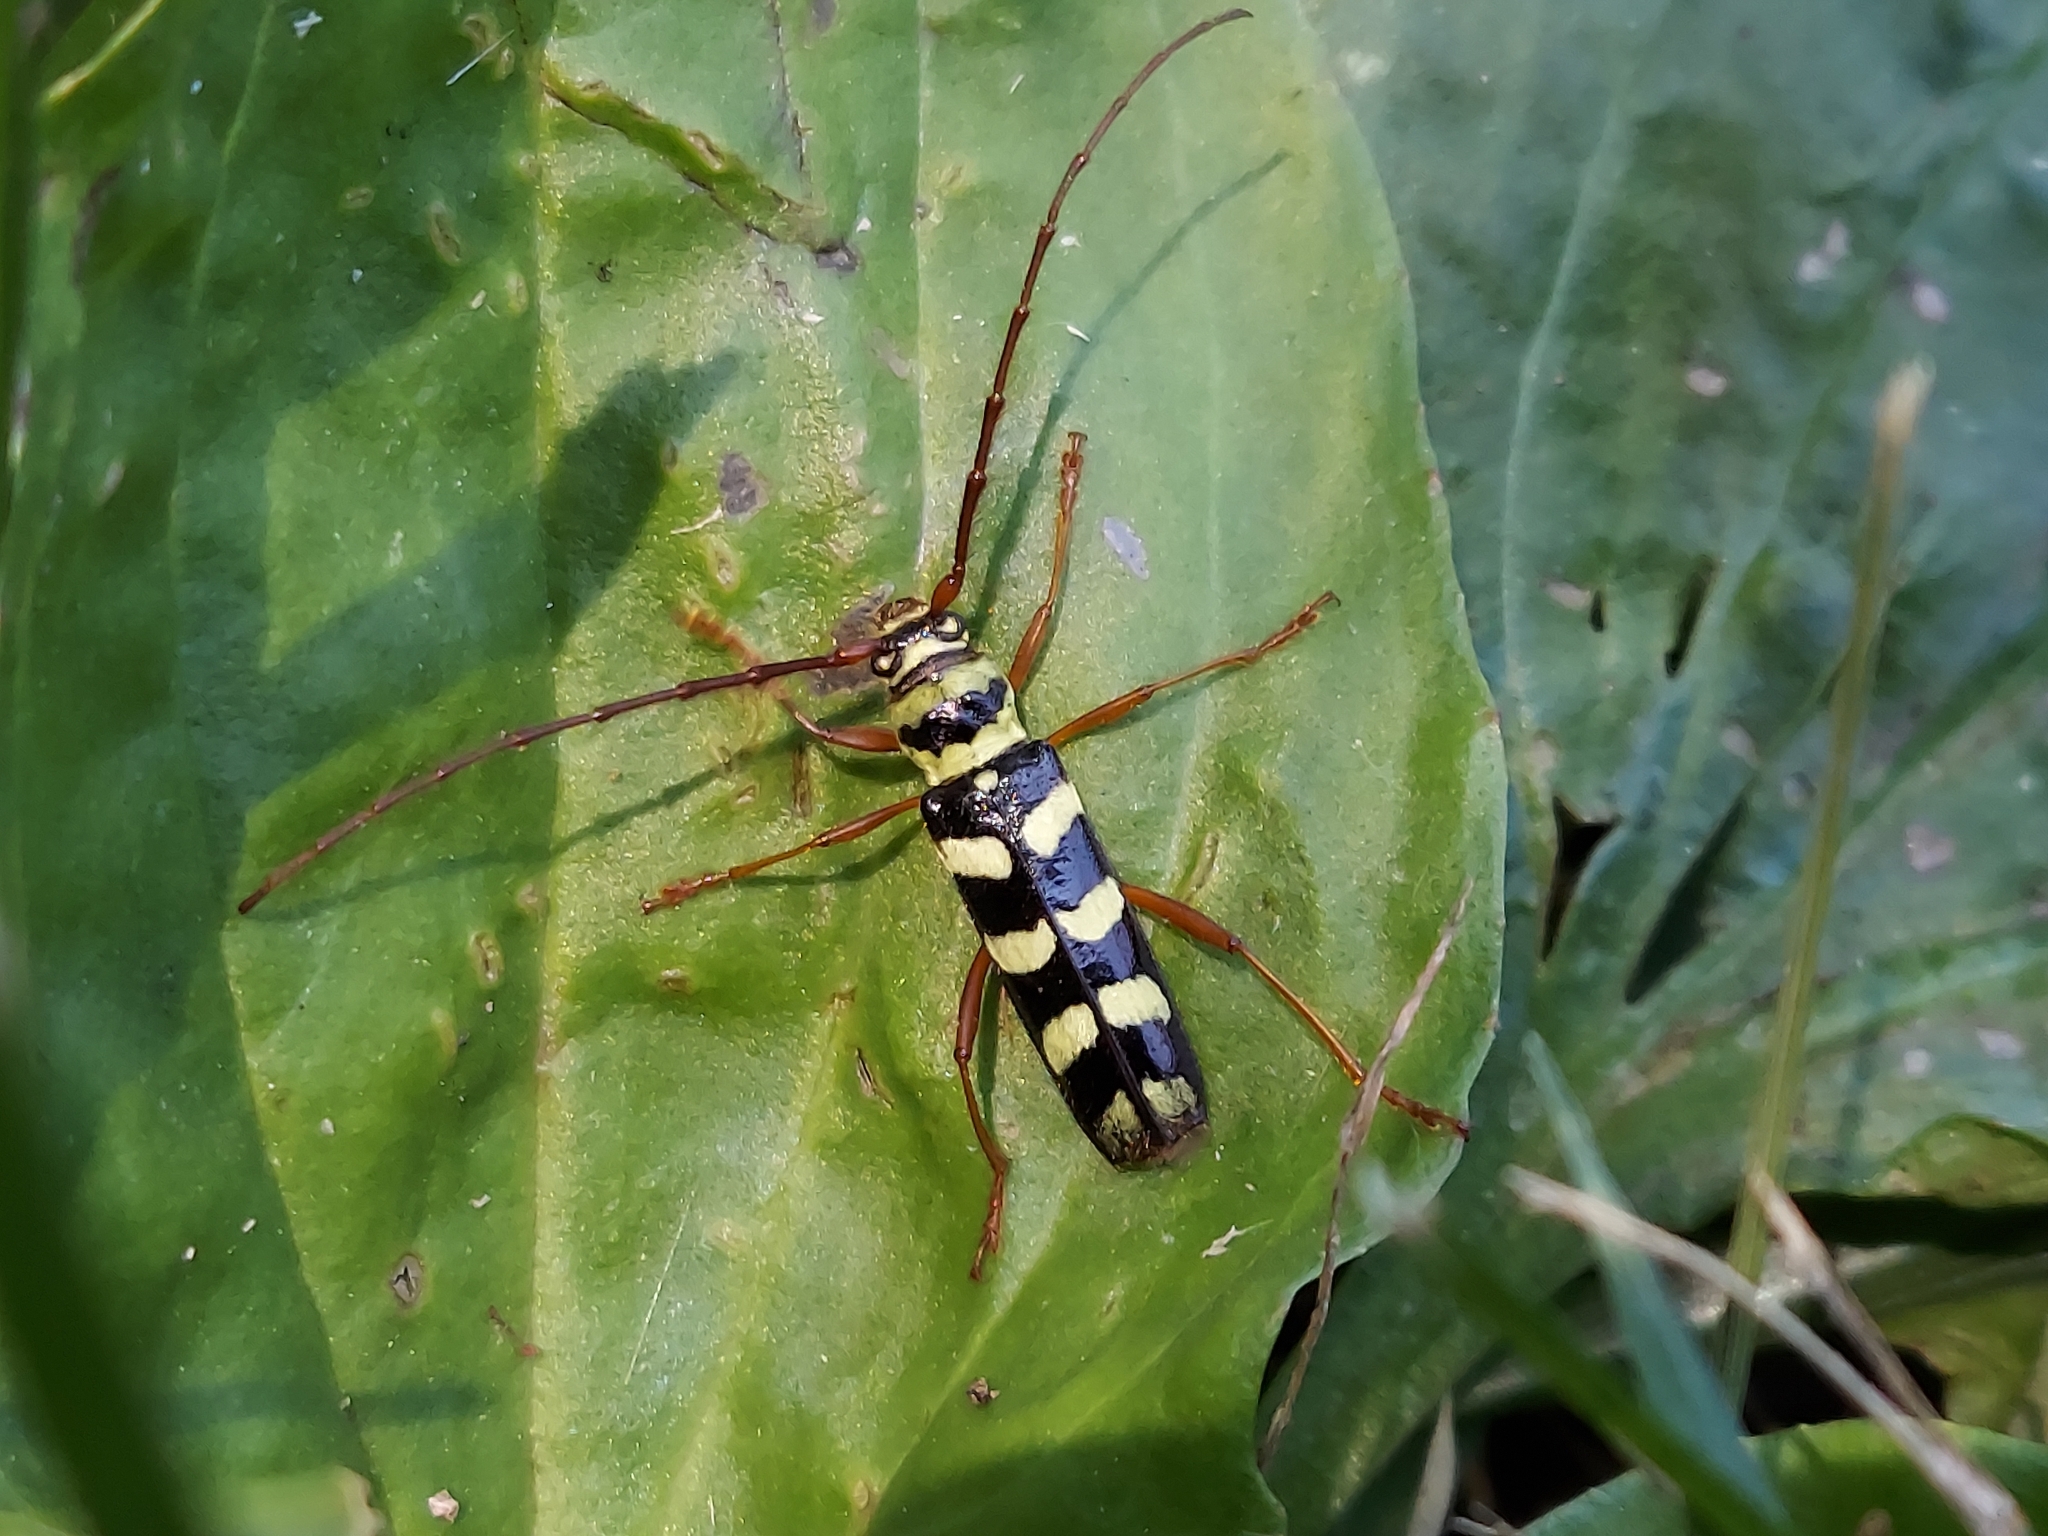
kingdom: Animalia
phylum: Arthropoda
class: Insecta
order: Coleoptera
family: Cerambycidae
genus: Dryobius
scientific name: Dryobius sexnotatus
